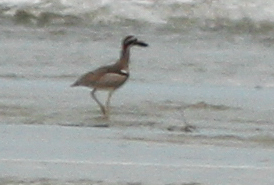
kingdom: Animalia
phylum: Chordata
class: Aves
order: Charadriiformes
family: Burhinidae
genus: Esacus
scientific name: Esacus magnirostris
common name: Beach stone-curlew
